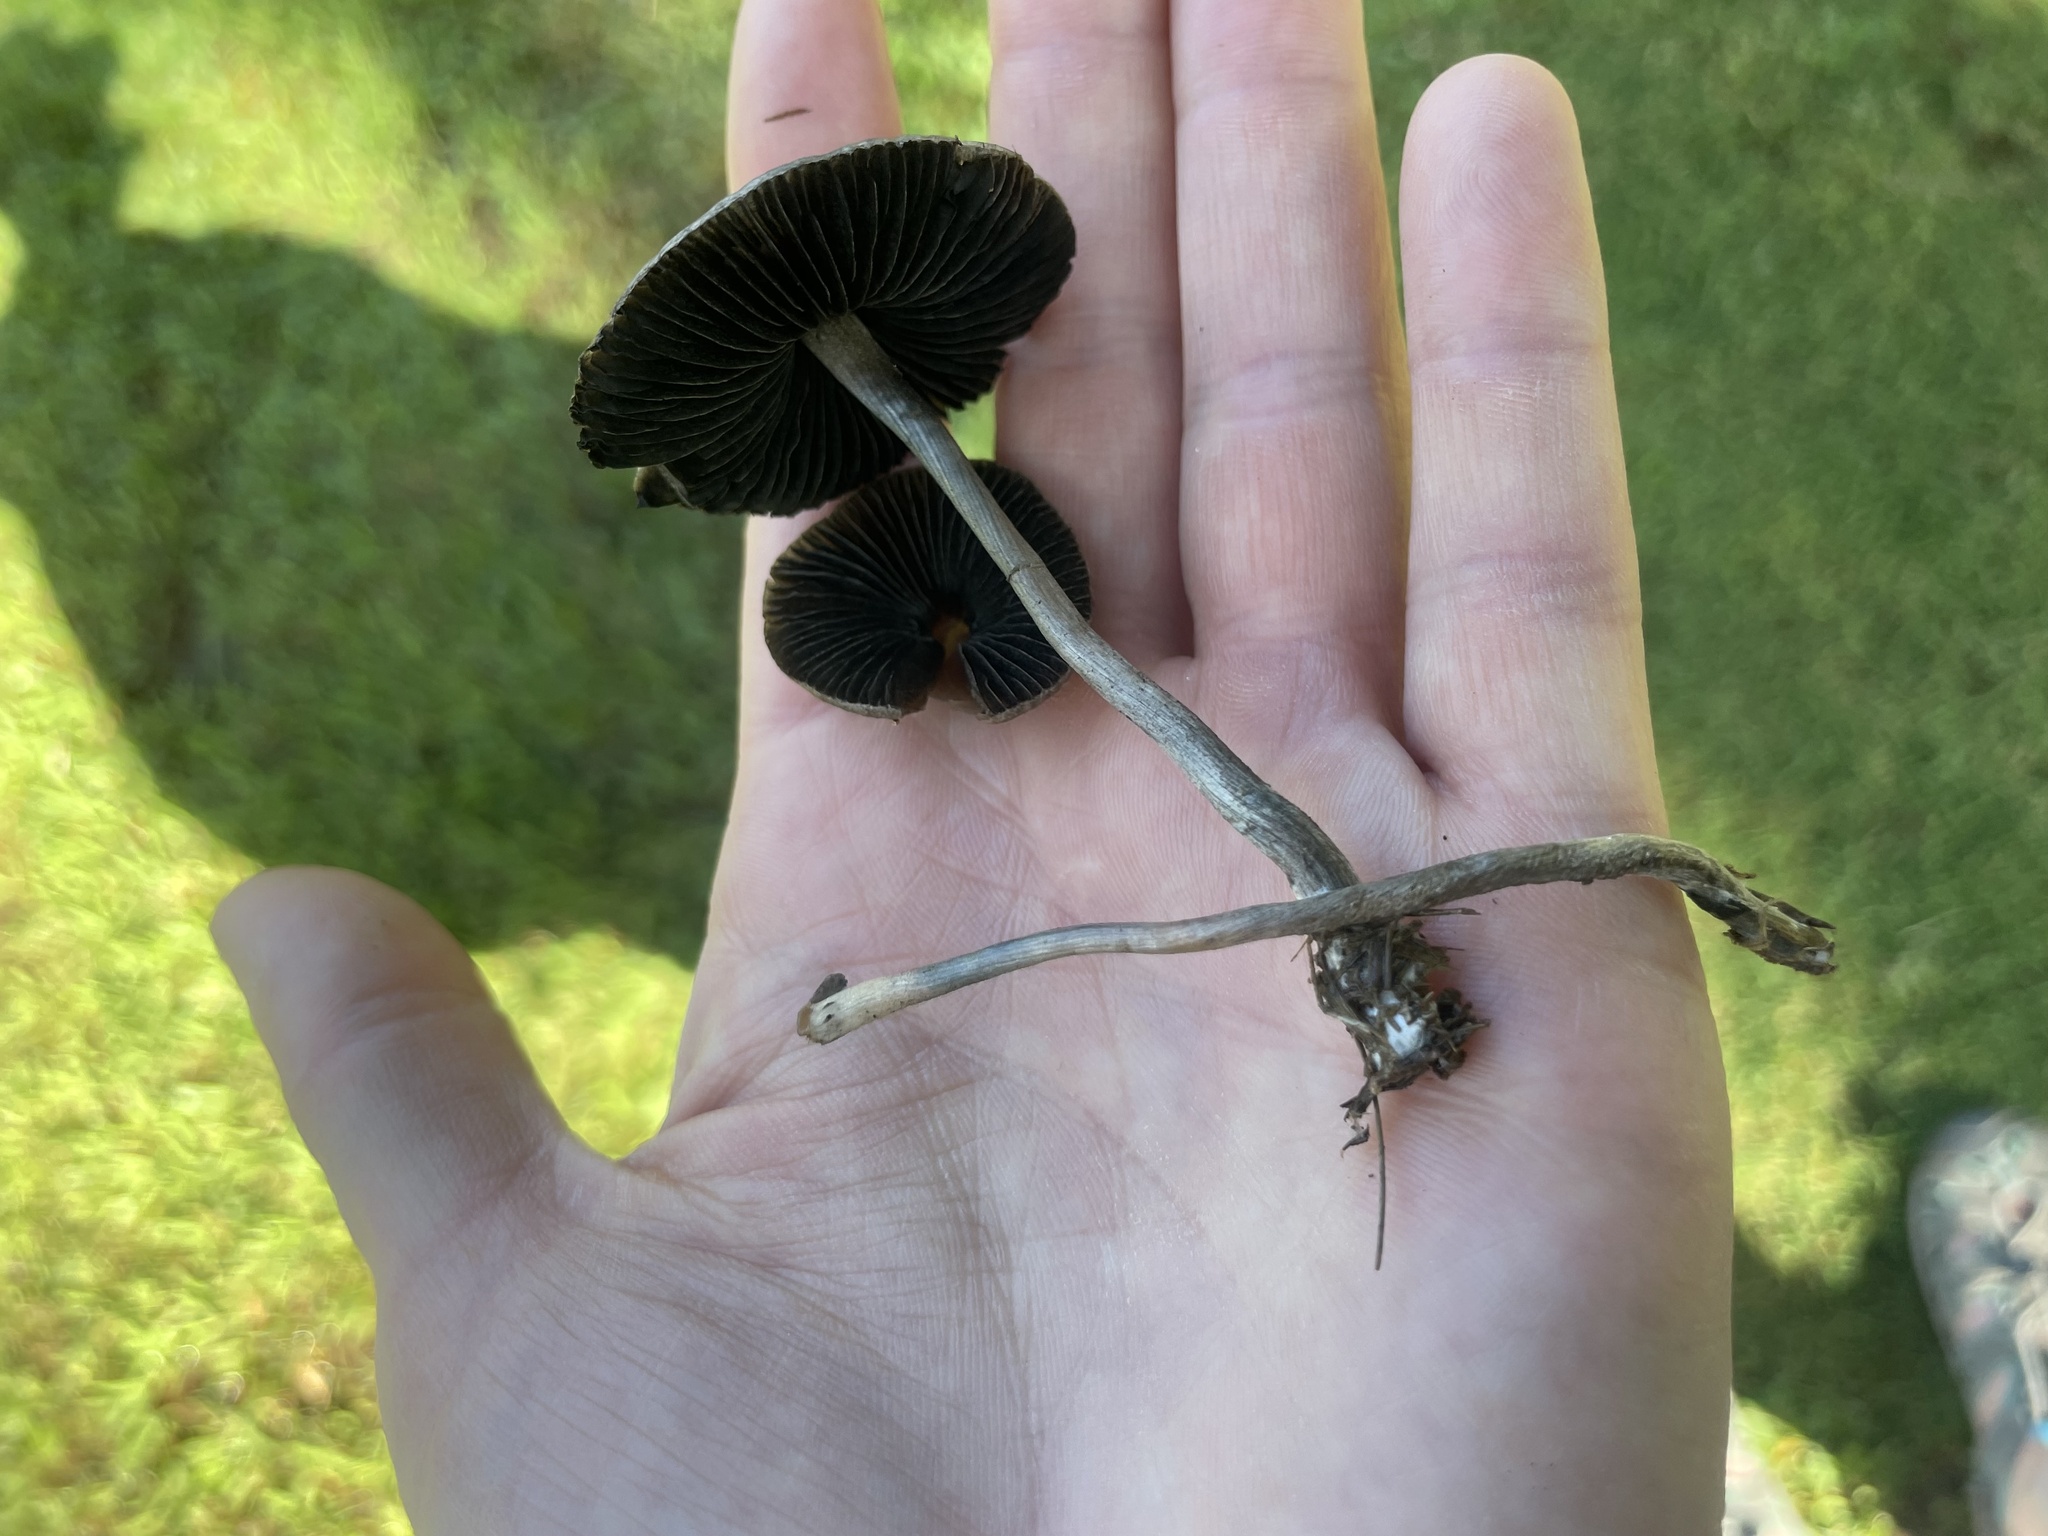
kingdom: Fungi
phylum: Basidiomycota
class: Agaricomycetes
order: Agaricales
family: Bolbitiaceae
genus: Panaeolus
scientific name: Panaeolus cyanescens
